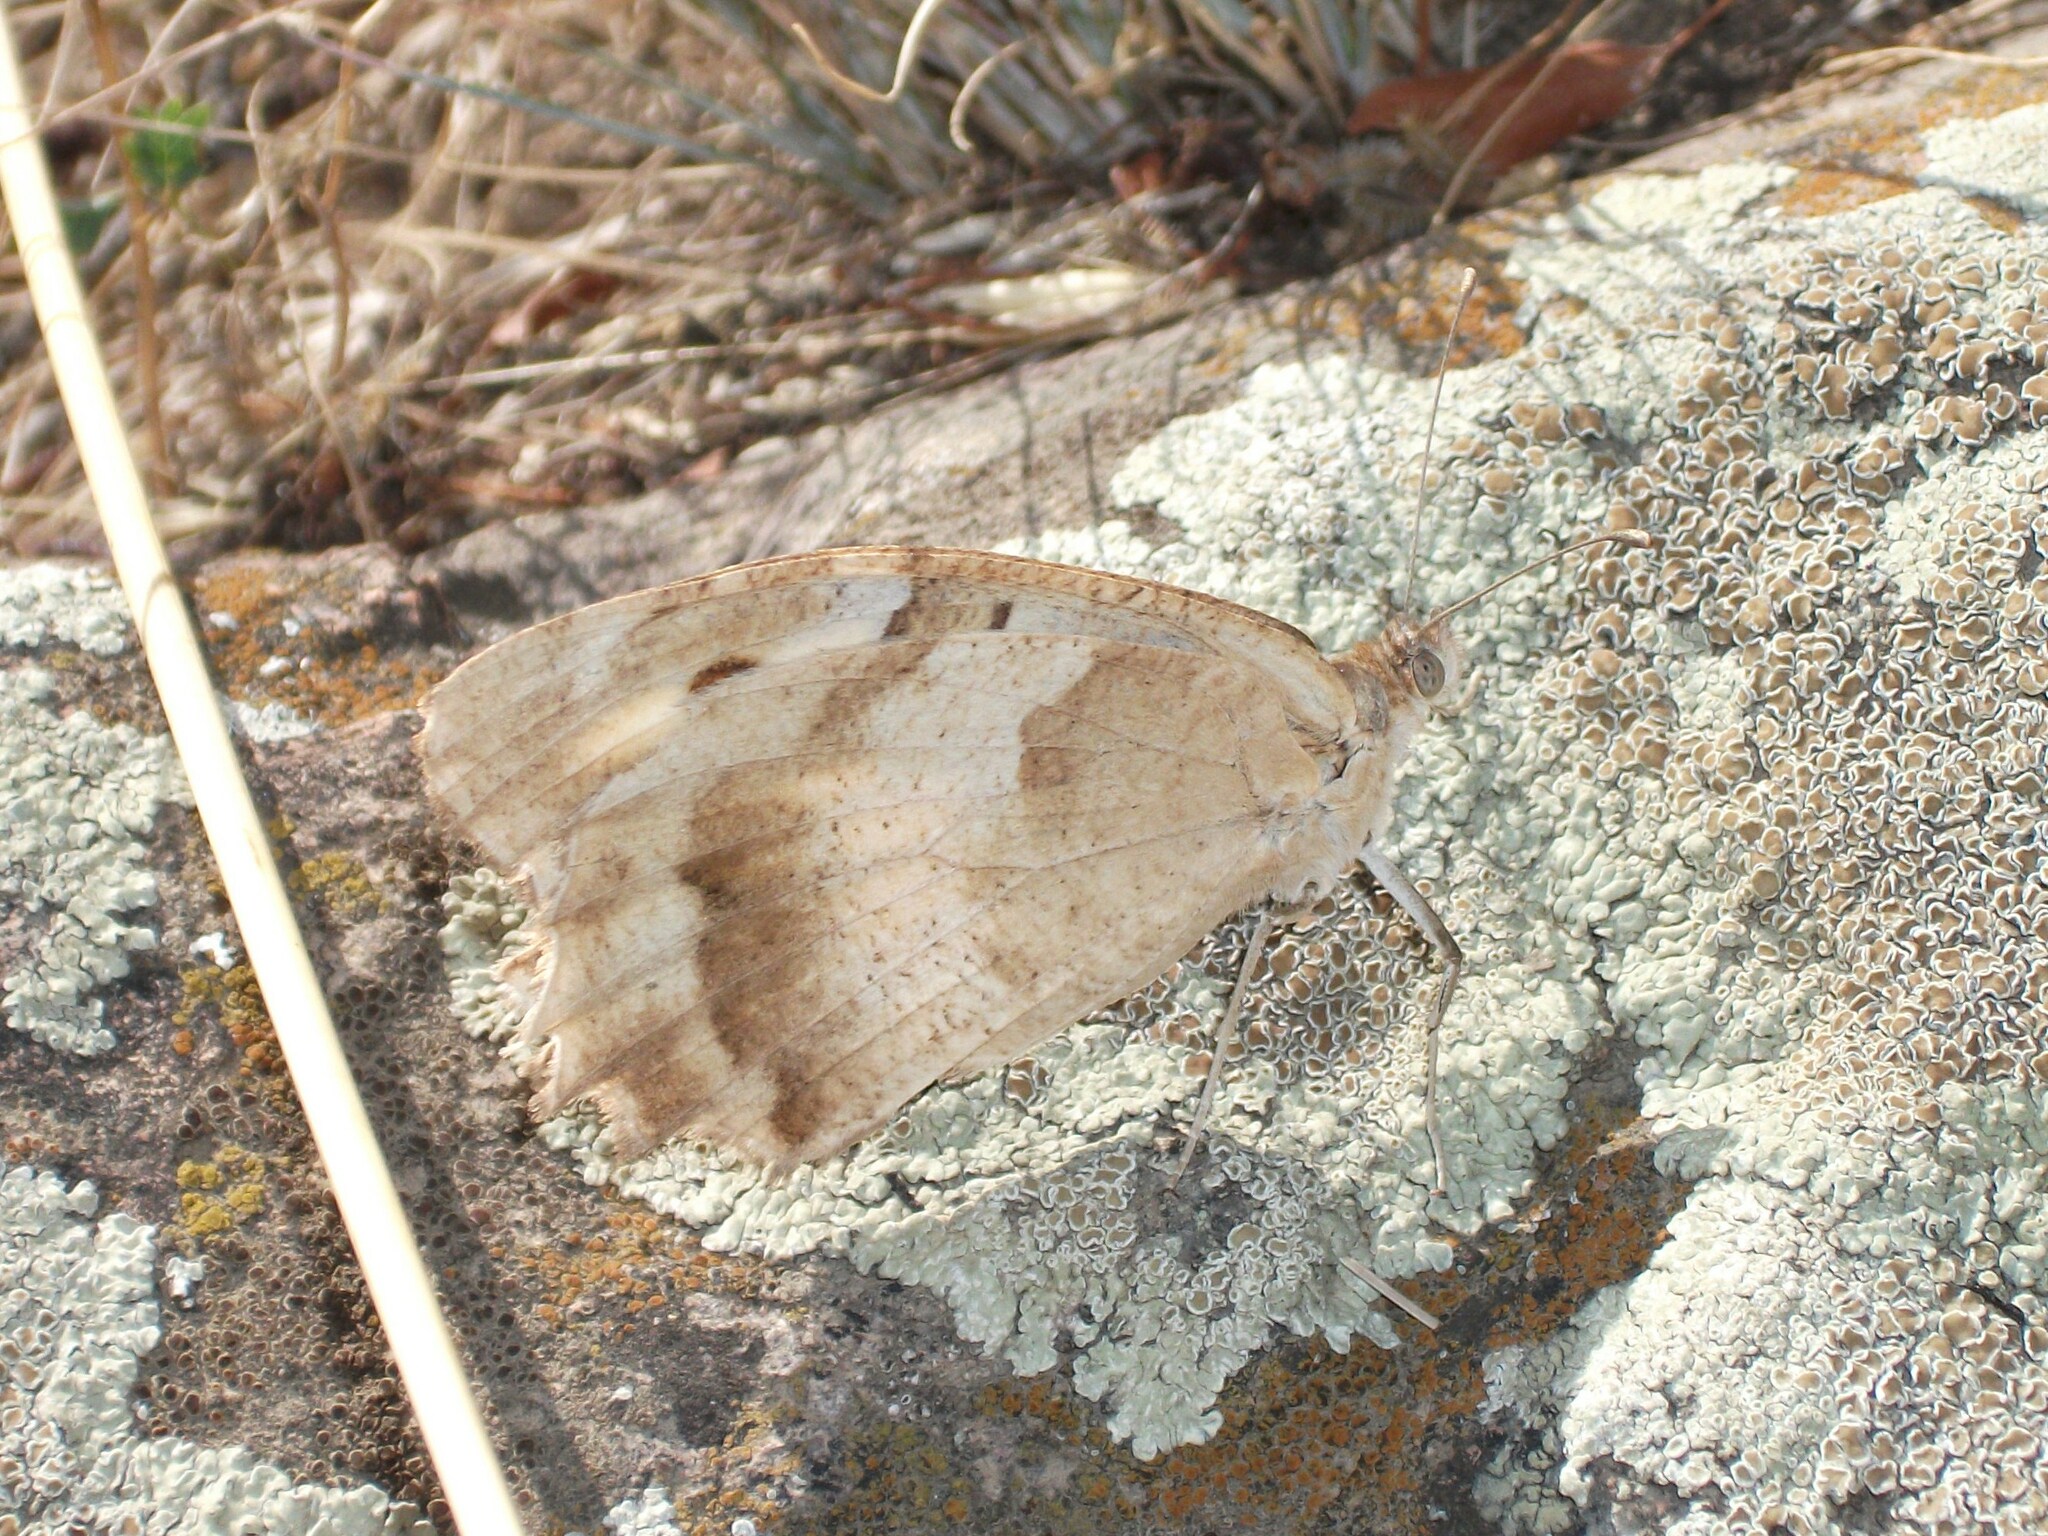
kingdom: Animalia
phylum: Arthropoda
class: Insecta
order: Lepidoptera
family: Nymphalidae
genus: Satyrus
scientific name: Satyrus briseis
